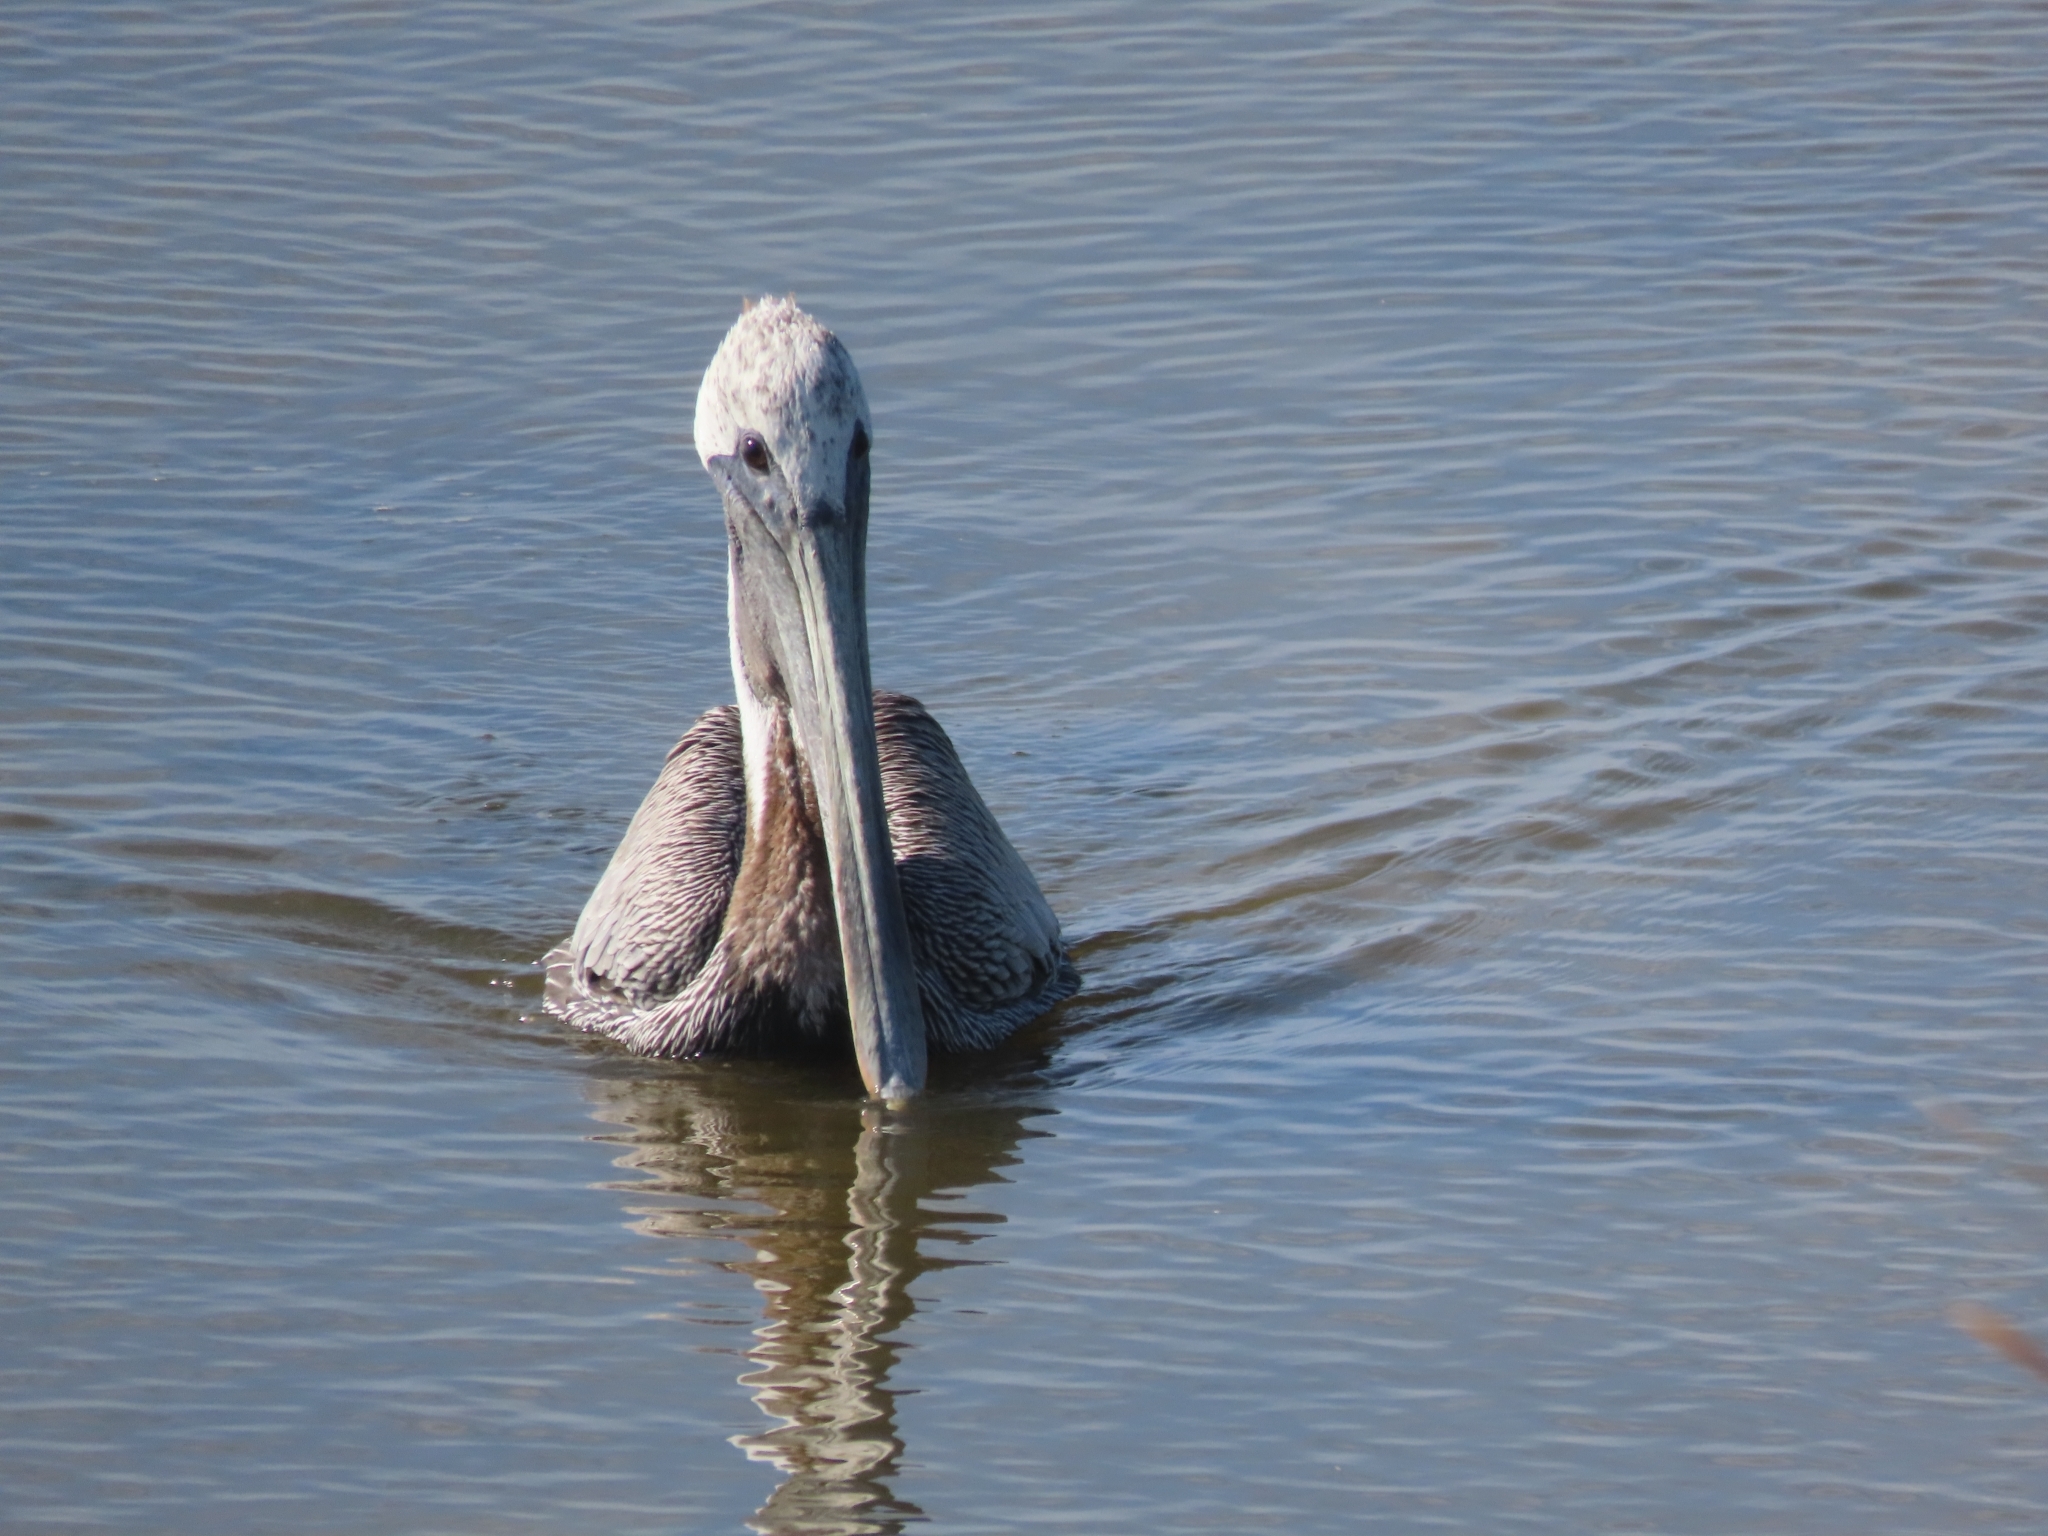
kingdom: Animalia
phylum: Chordata
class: Aves
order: Pelecaniformes
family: Pelecanidae
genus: Pelecanus
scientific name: Pelecanus occidentalis
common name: Brown pelican
